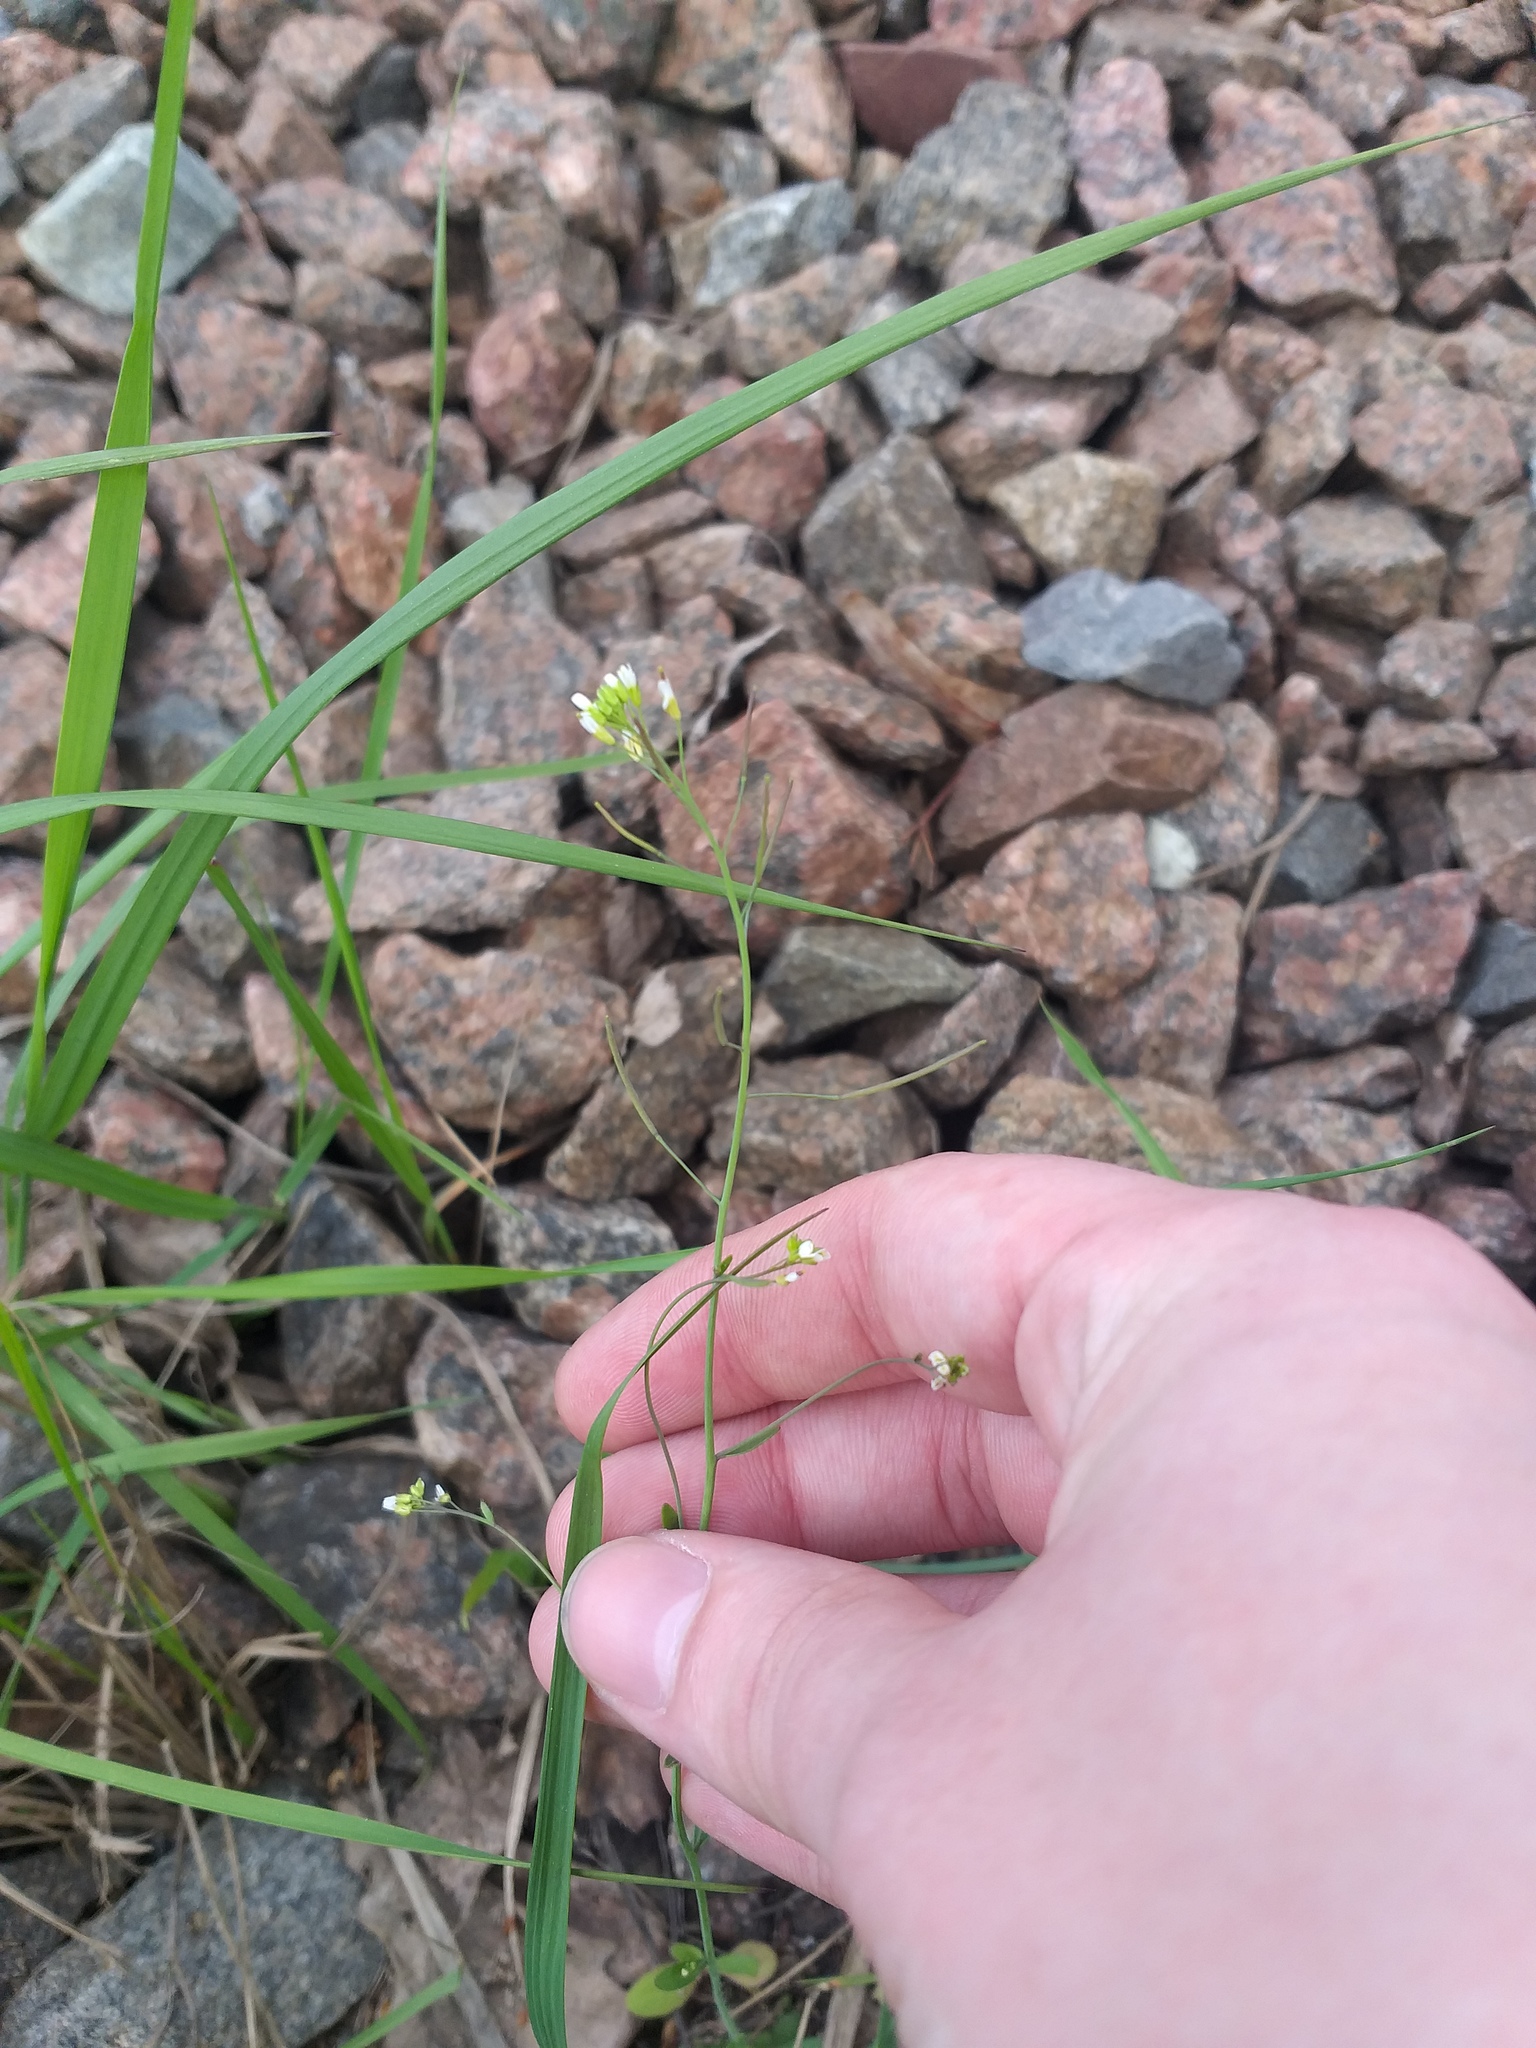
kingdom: Plantae
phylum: Tracheophyta
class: Magnoliopsida
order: Brassicales
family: Brassicaceae
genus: Arabidopsis
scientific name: Arabidopsis thaliana
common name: Thale cress
